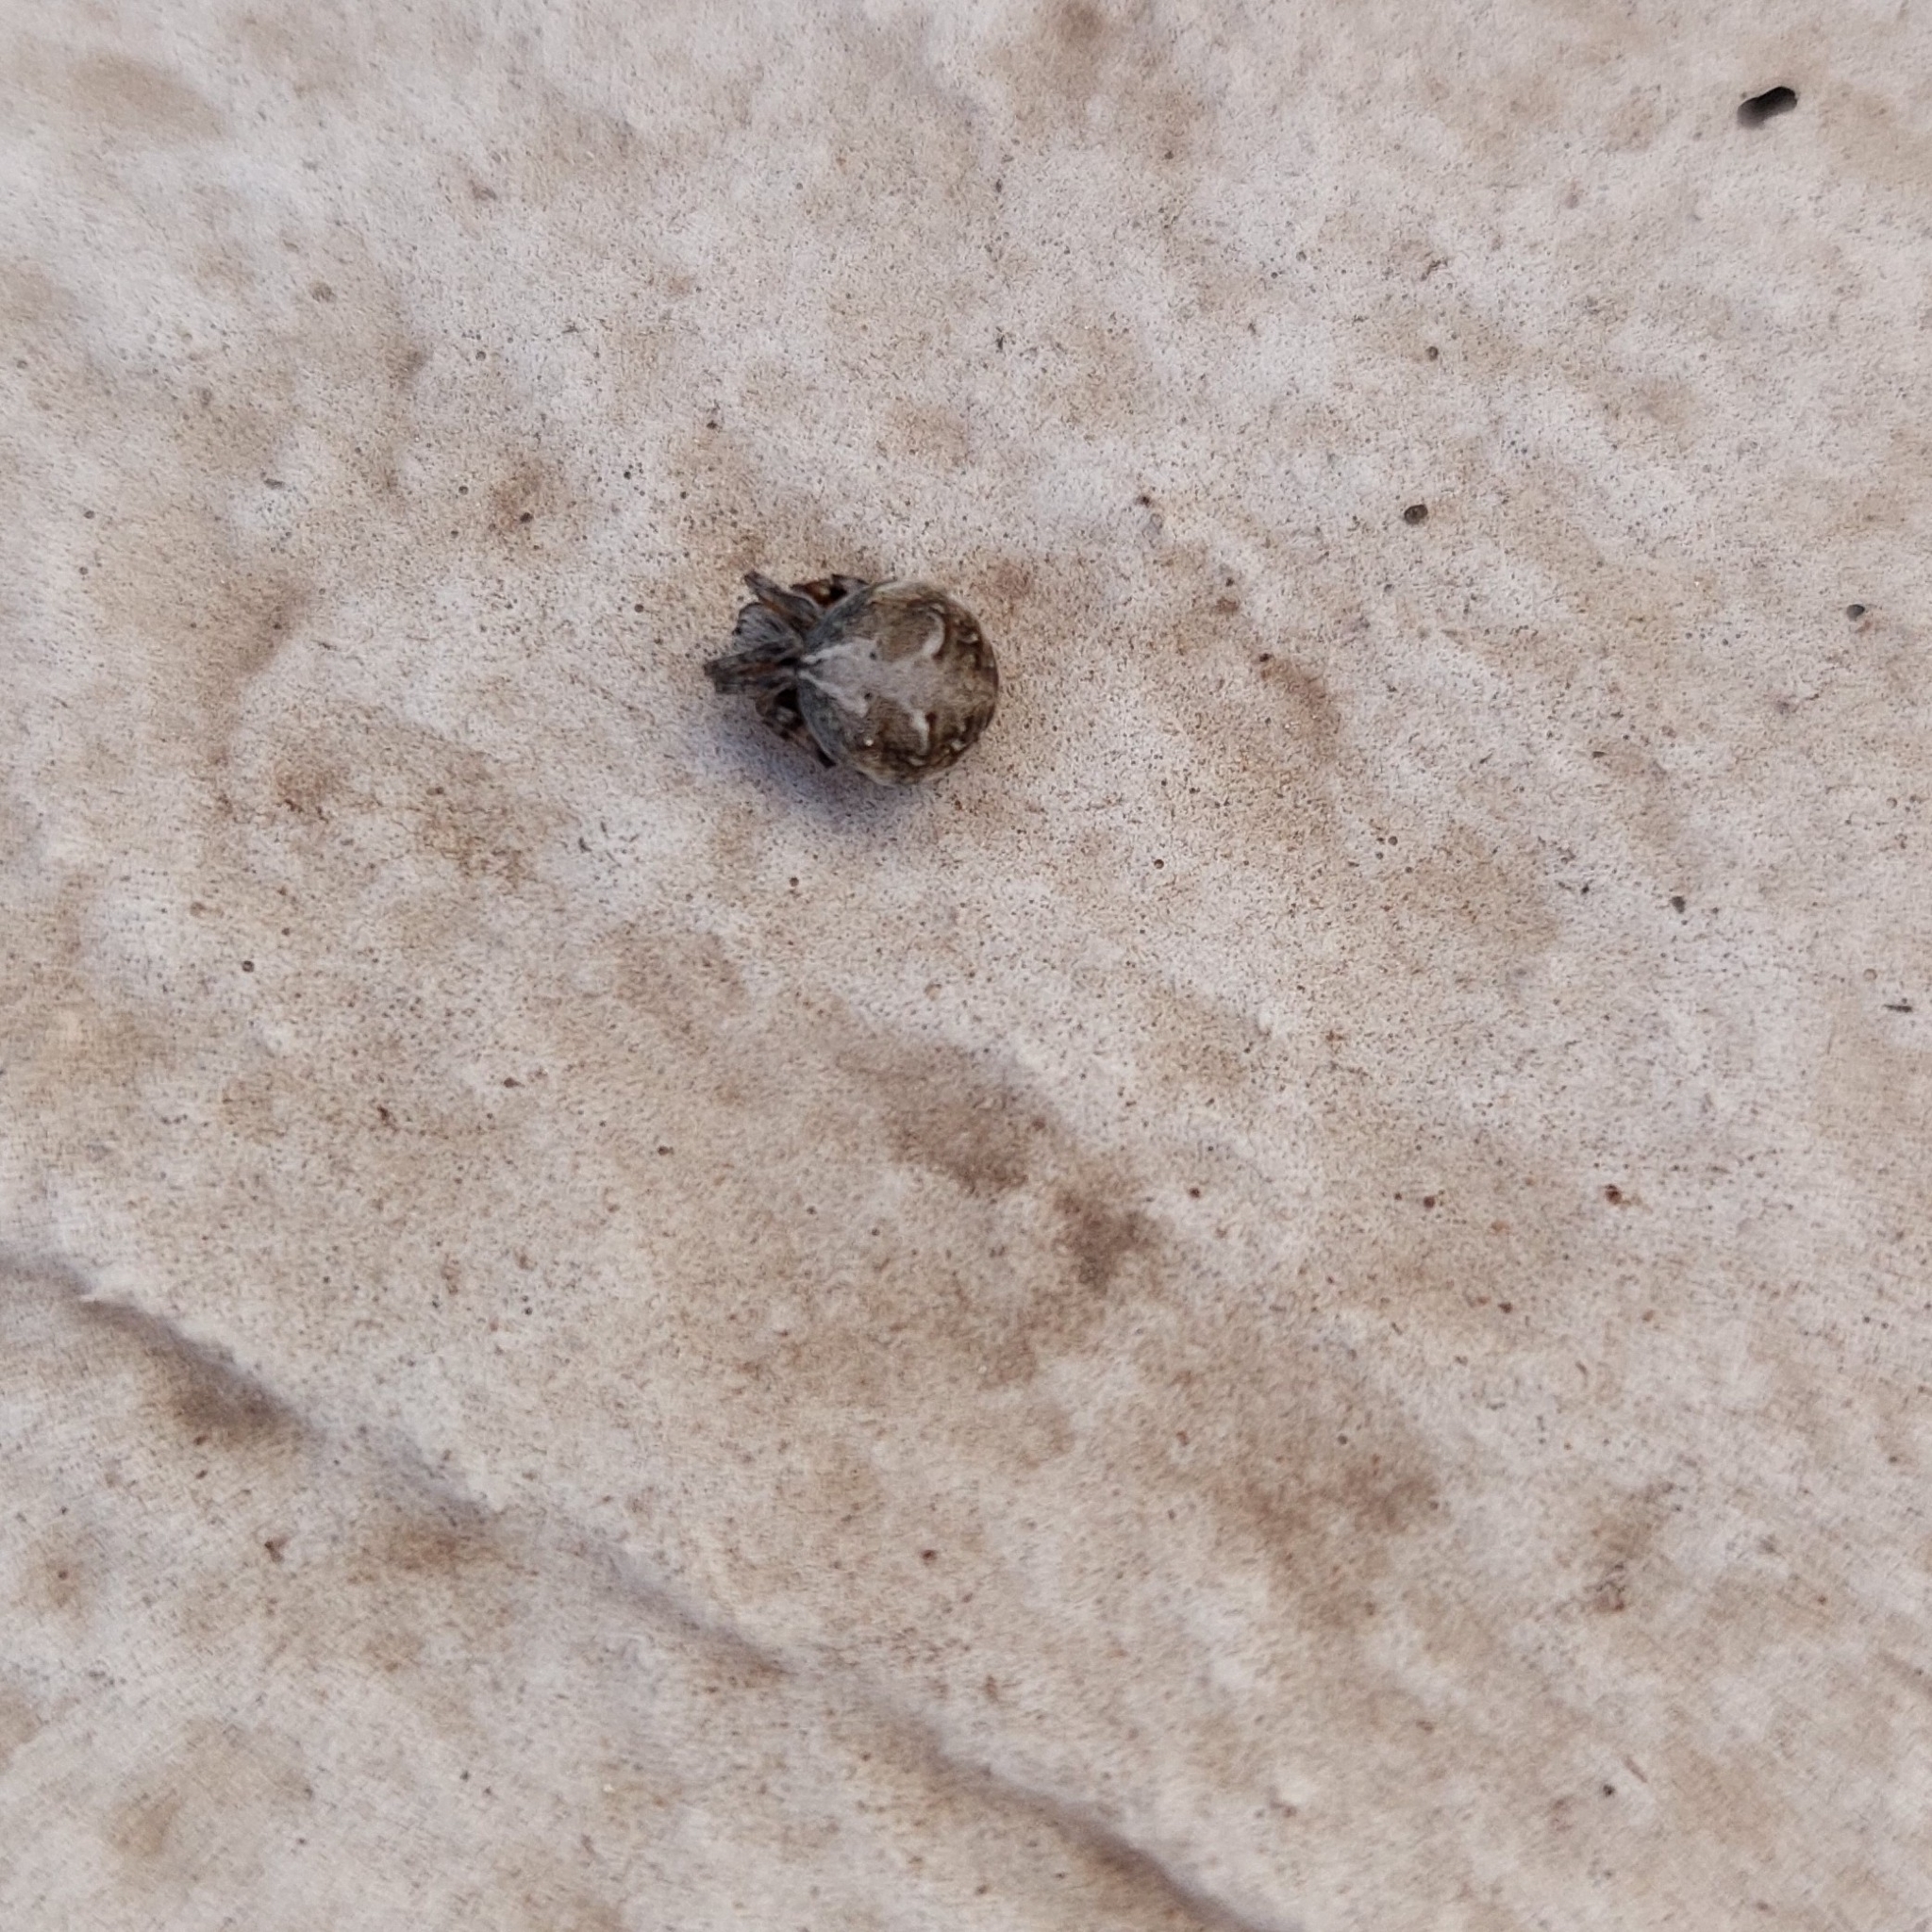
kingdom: Animalia
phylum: Arthropoda
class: Arachnida
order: Araneae
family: Araneidae
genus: Metepeira
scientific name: Metepeira
